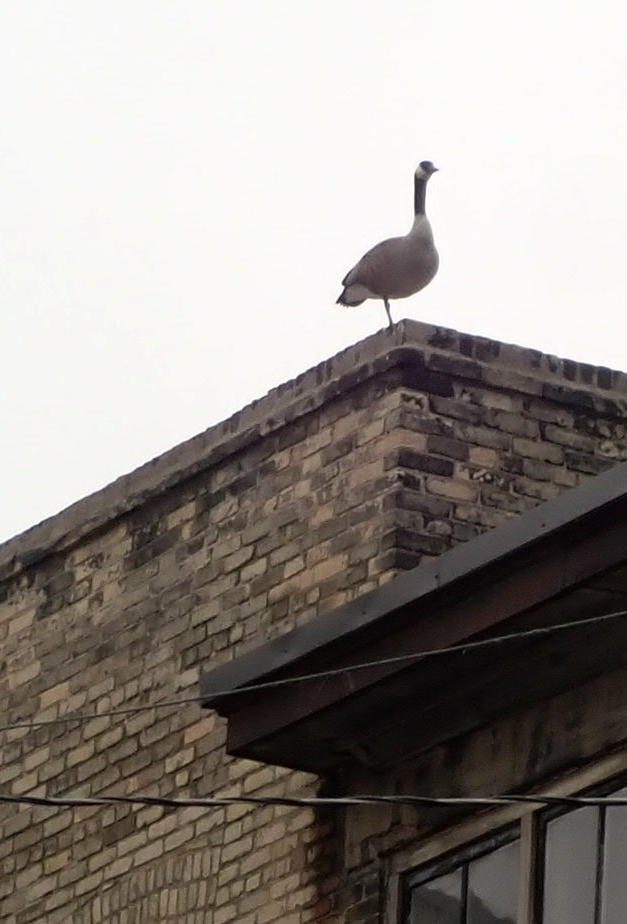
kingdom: Animalia
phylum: Chordata
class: Aves
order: Anseriformes
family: Anatidae
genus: Branta
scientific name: Branta canadensis
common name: Canada goose
